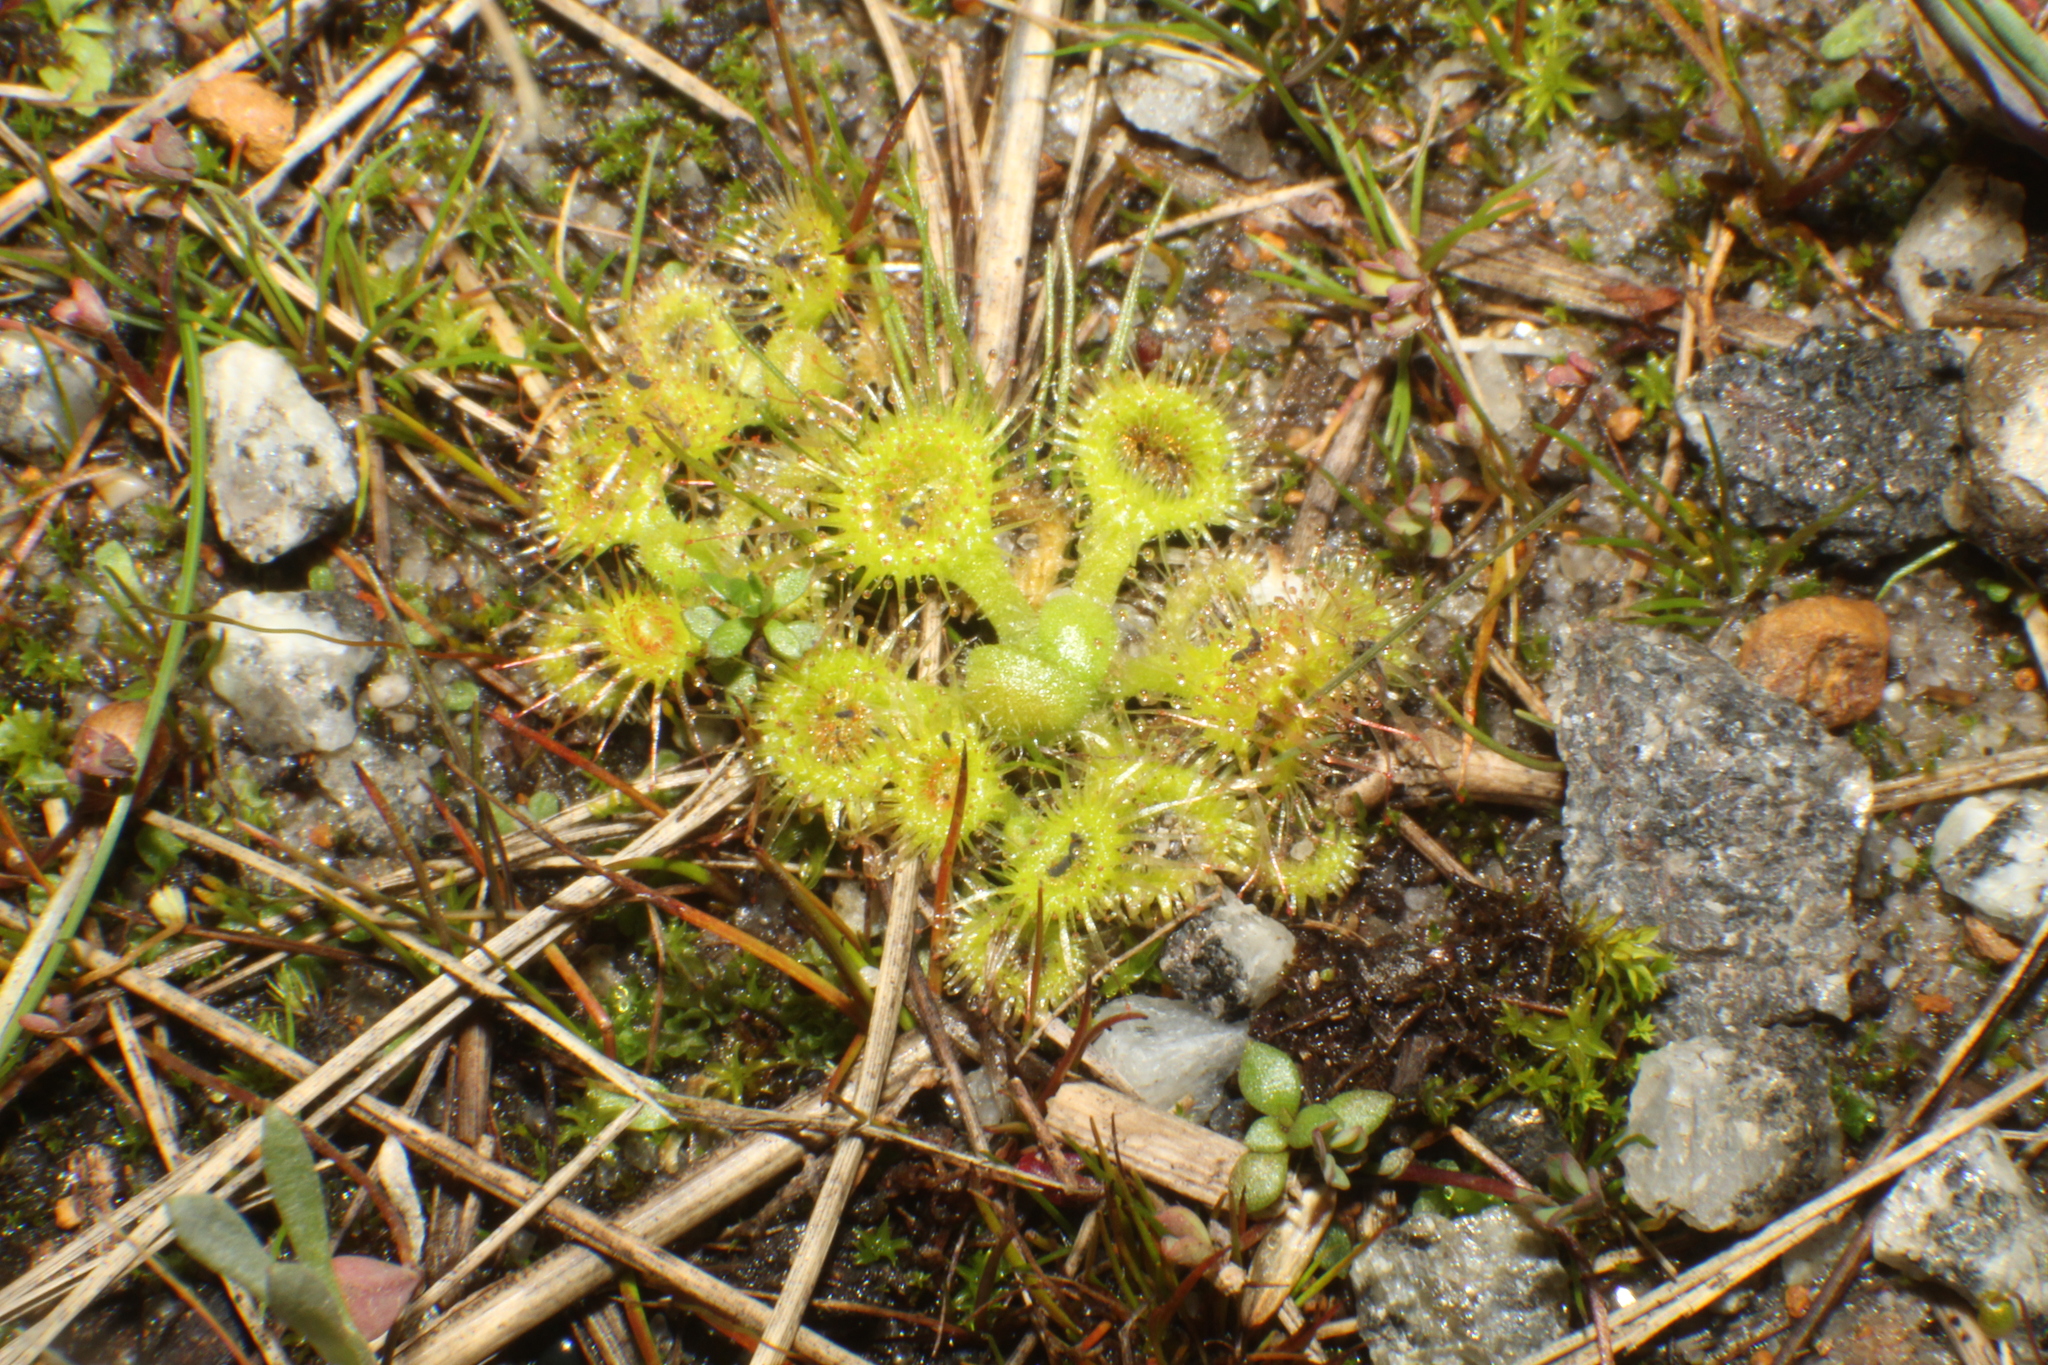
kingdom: Plantae
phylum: Tracheophyta
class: Magnoliopsida
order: Caryophyllales
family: Droseraceae
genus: Drosera
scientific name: Drosera glanduligera
